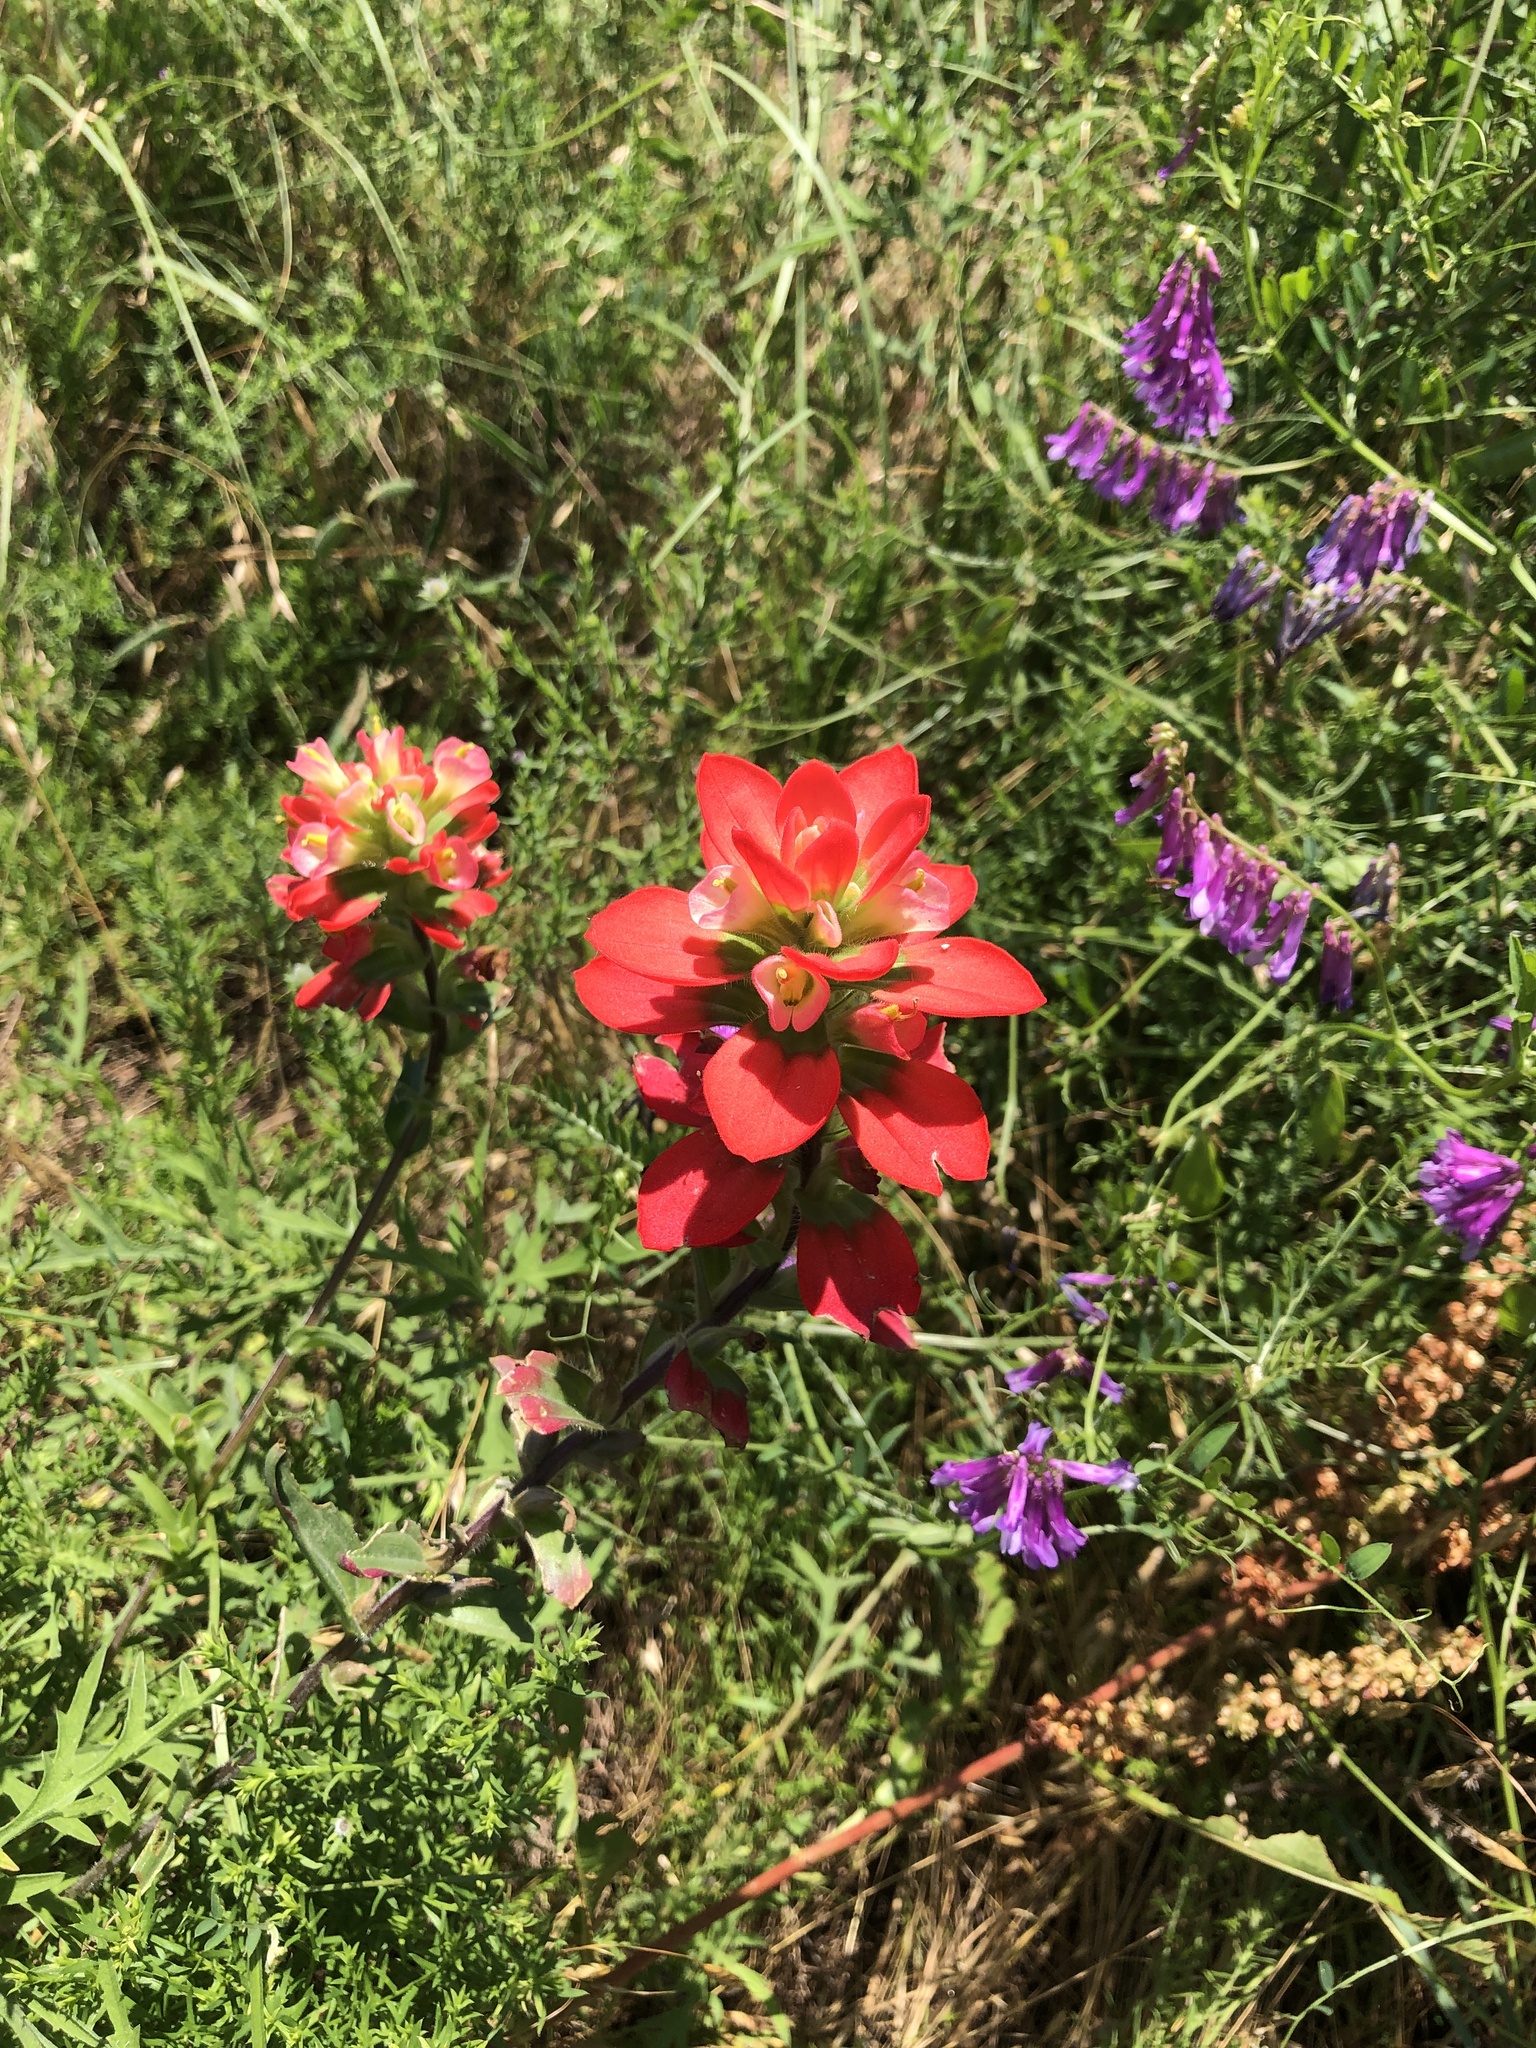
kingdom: Plantae
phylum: Tracheophyta
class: Magnoliopsida
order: Lamiales
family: Orobanchaceae
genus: Castilleja
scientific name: Castilleja indivisa
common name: Texas paintbrush
